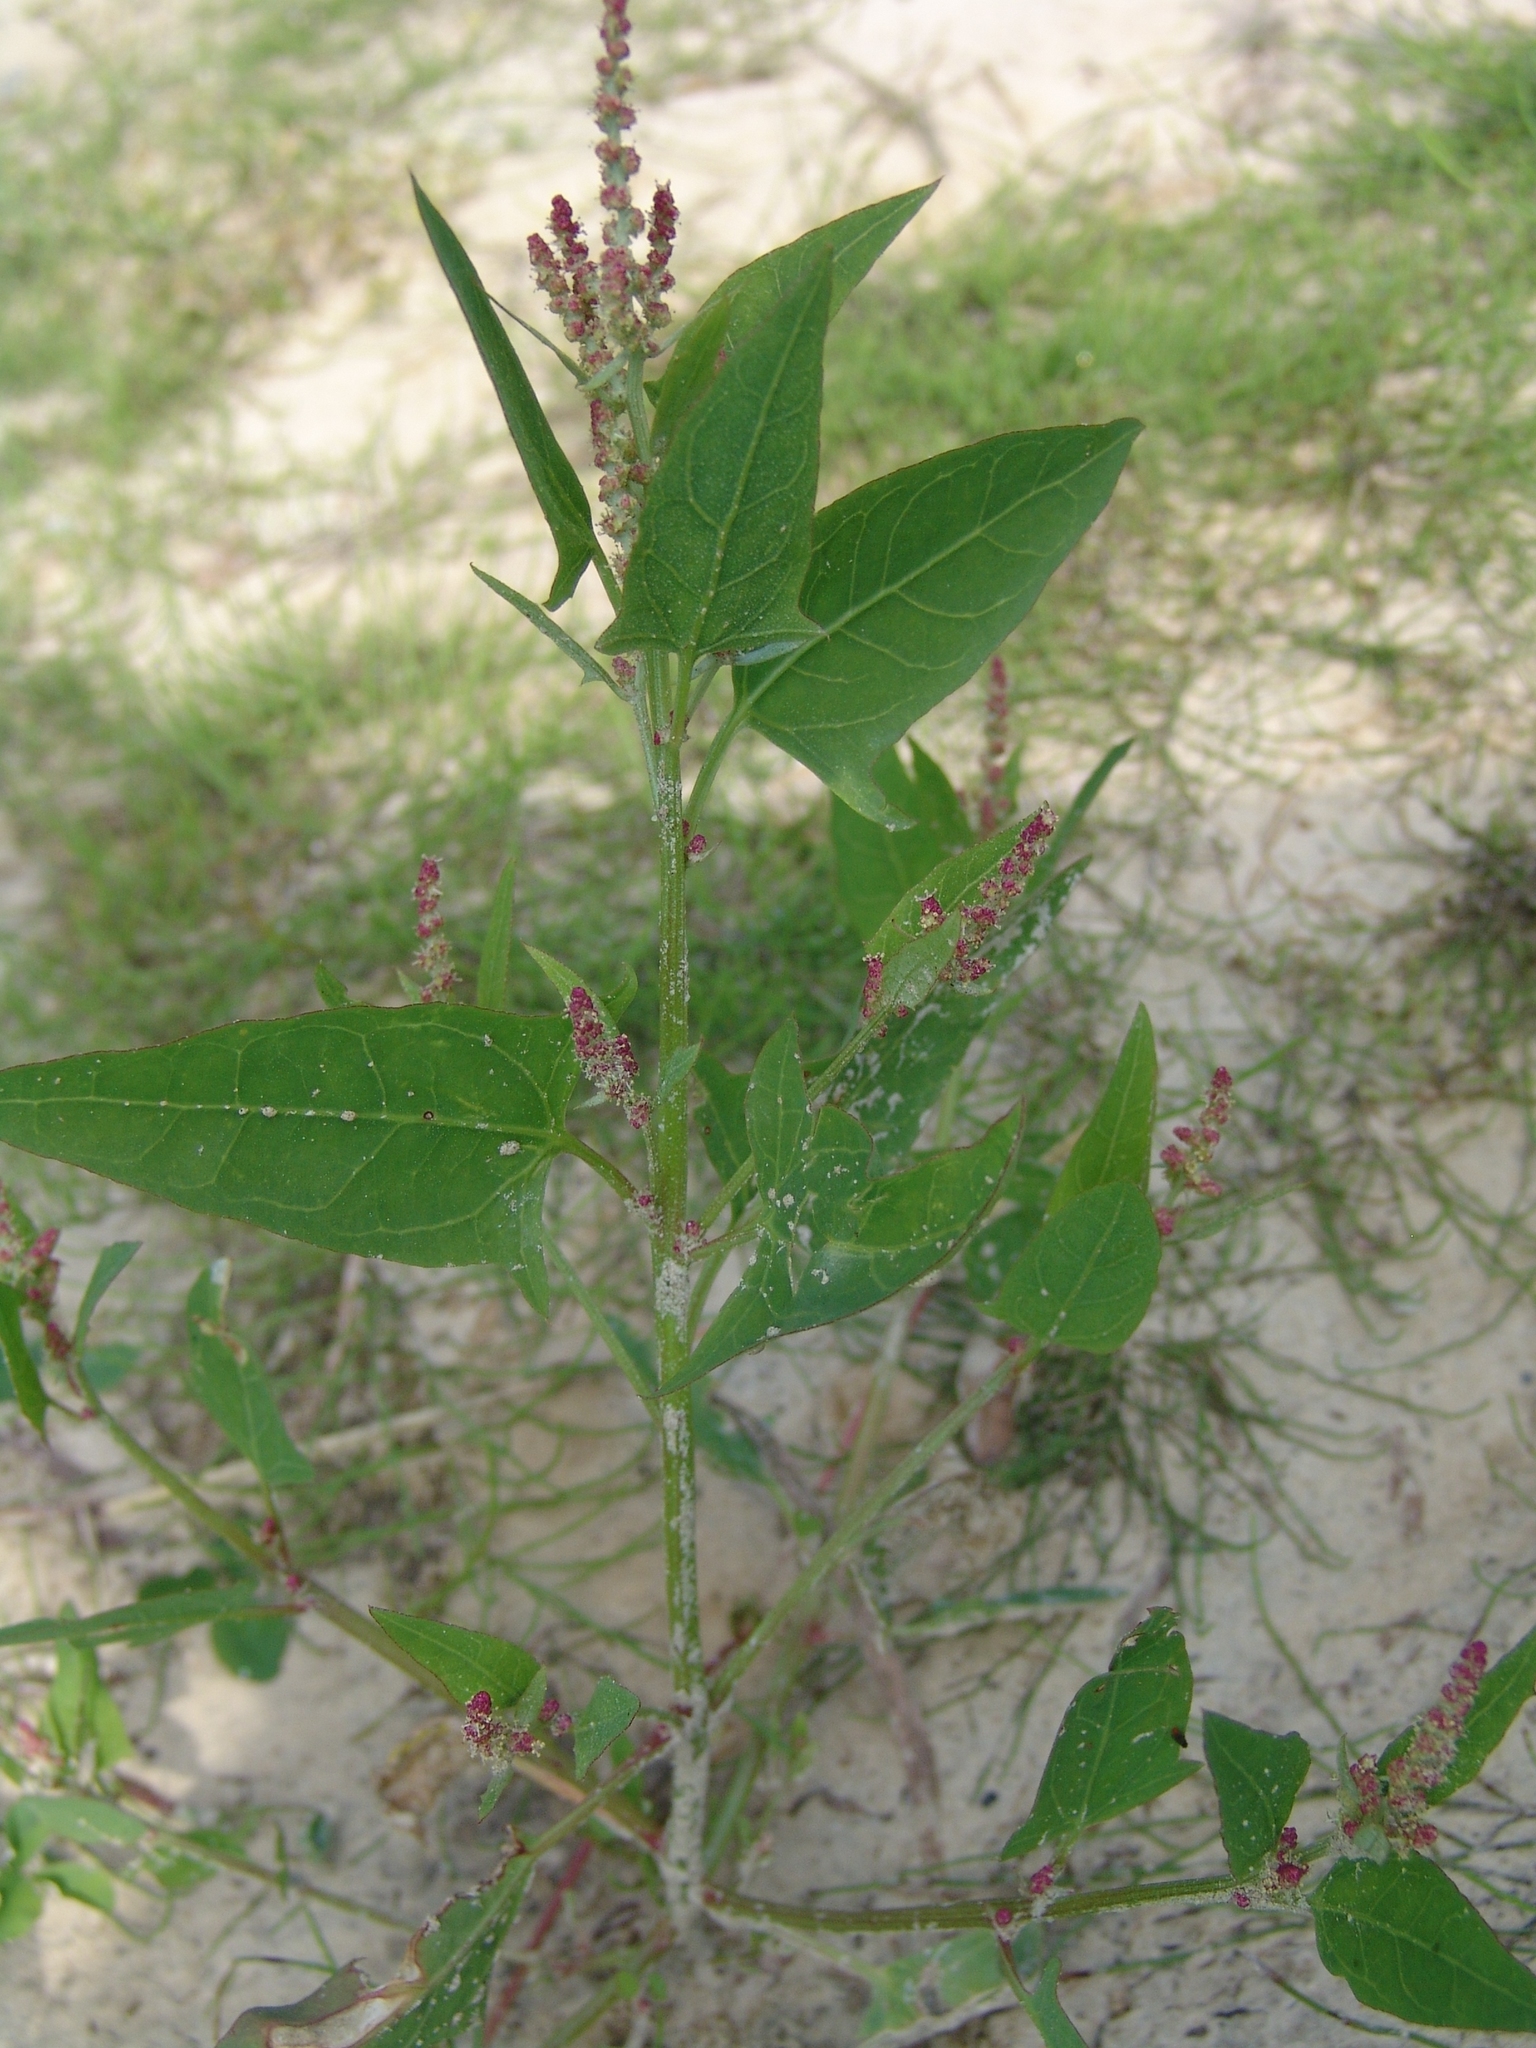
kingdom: Plantae
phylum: Tracheophyta
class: Magnoliopsida
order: Caryophyllales
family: Amaranthaceae
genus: Atriplex
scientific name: Atriplex prostrata
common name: Spear-leaved orache
